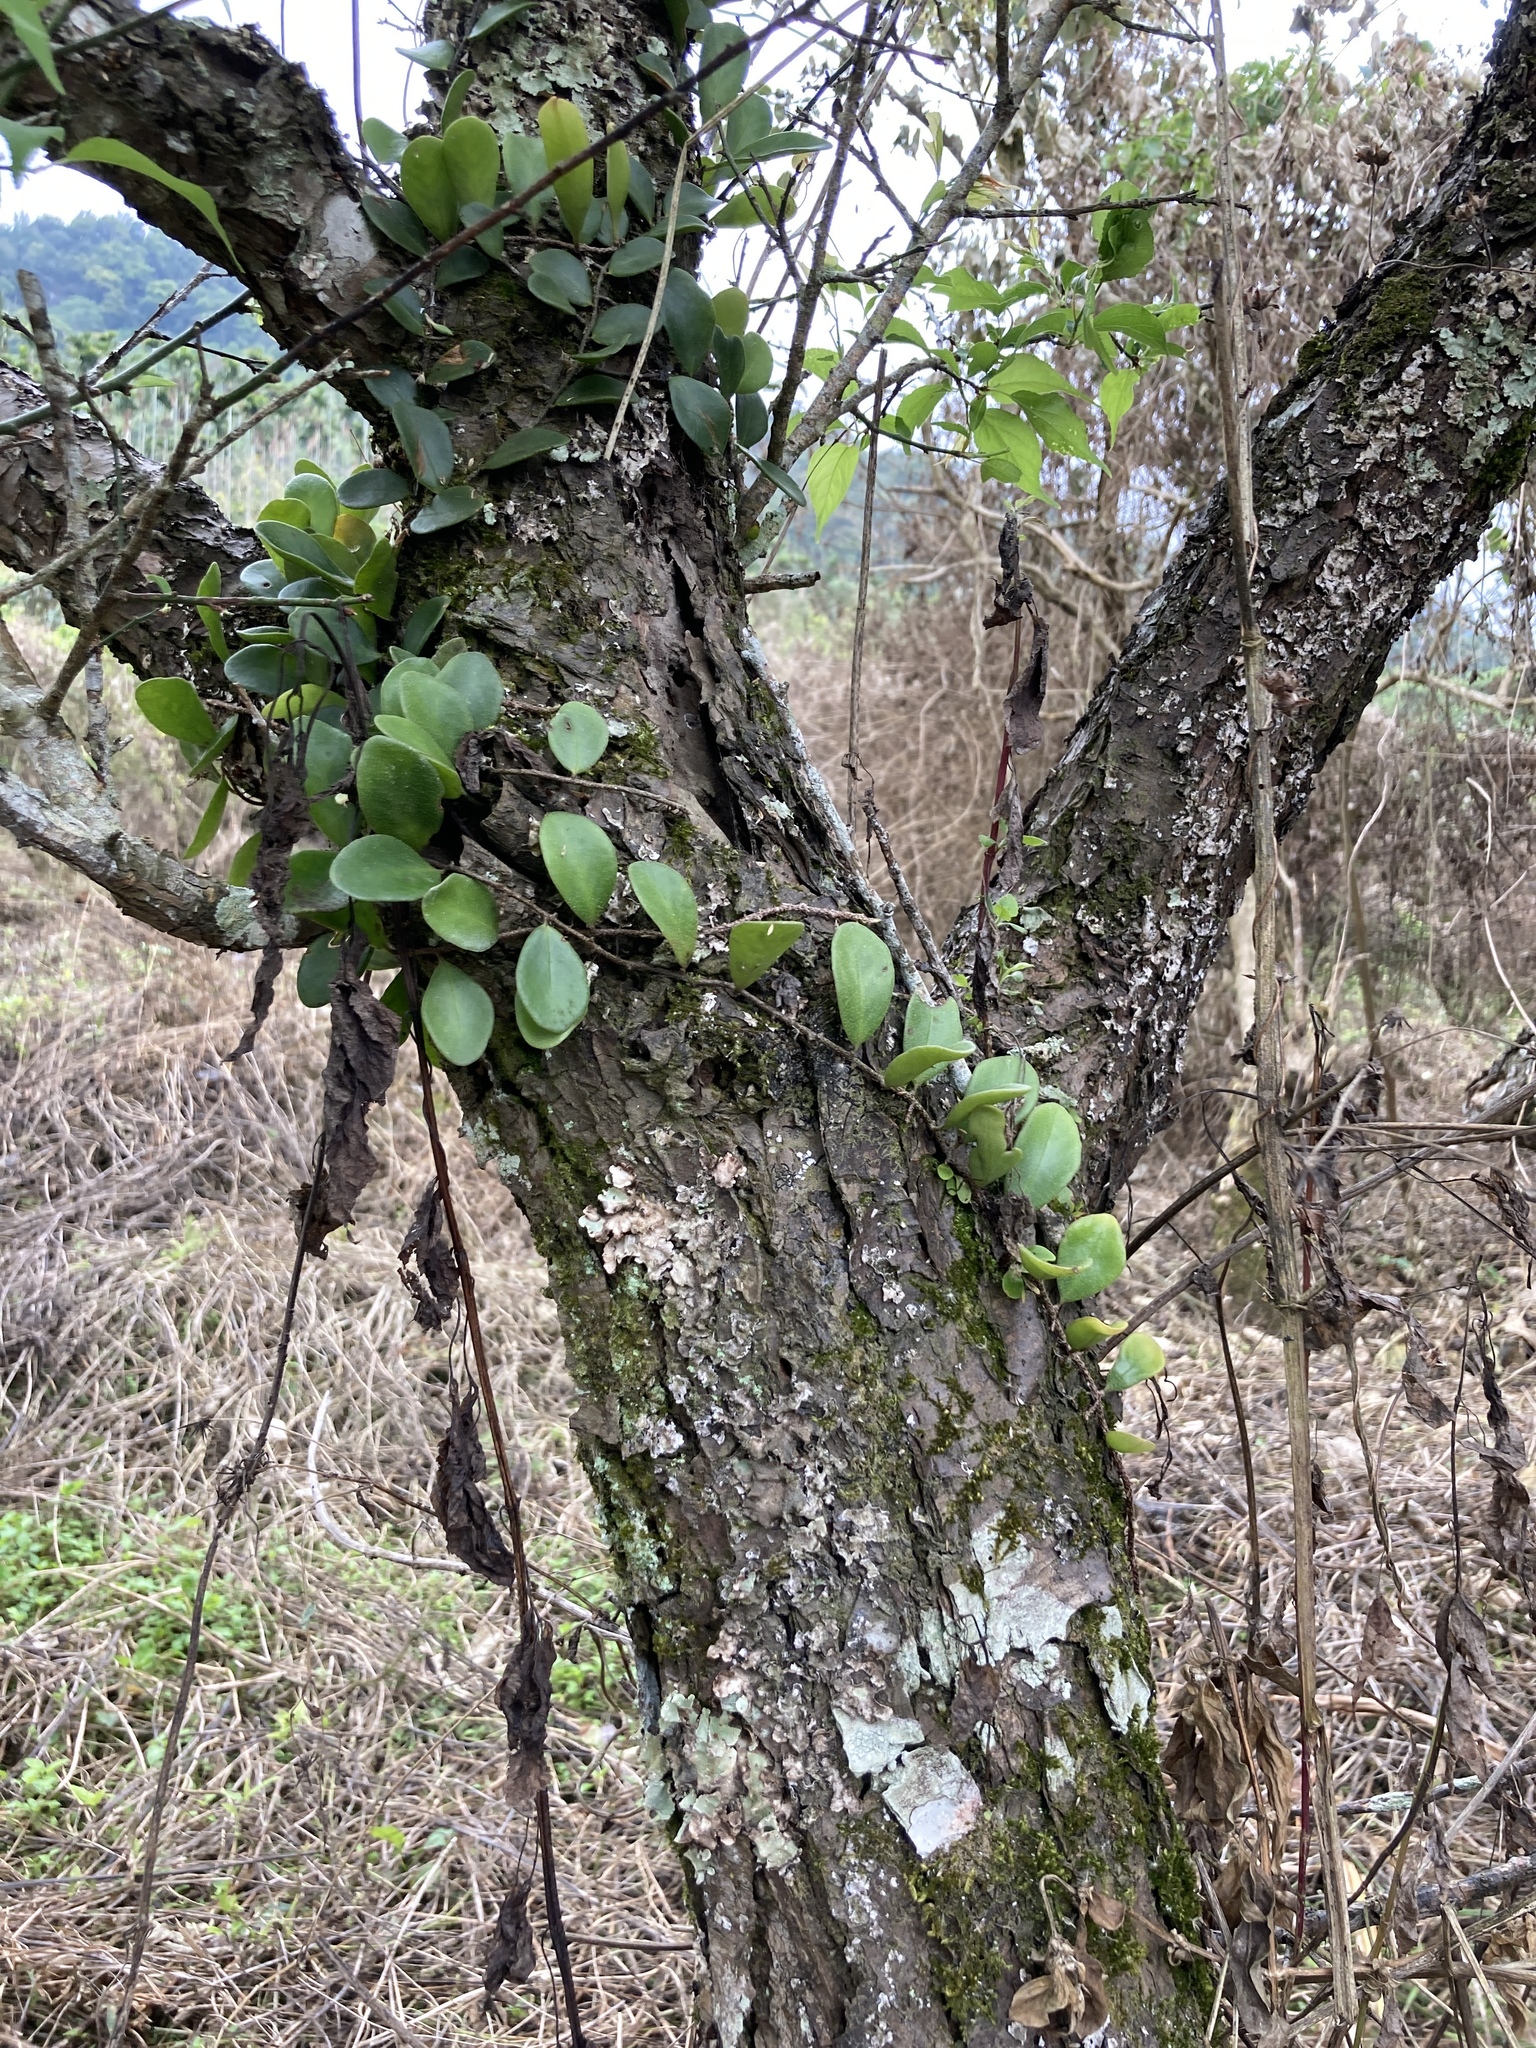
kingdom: Plantae
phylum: Tracheophyta
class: Polypodiopsida
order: Polypodiales
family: Polypodiaceae
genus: Pyrrosia
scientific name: Pyrrosia lanceolata
